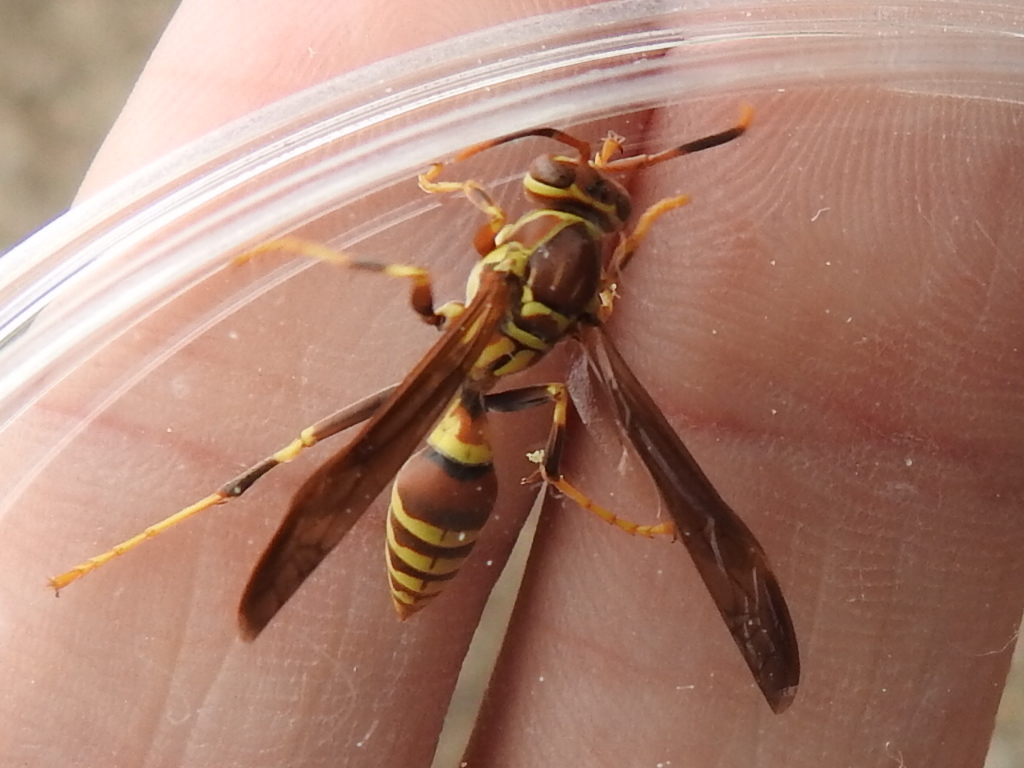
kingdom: Animalia
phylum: Arthropoda
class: Insecta
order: Hymenoptera
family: Eumenidae
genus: Polistes
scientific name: Polistes exclamans
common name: Paper wasp
